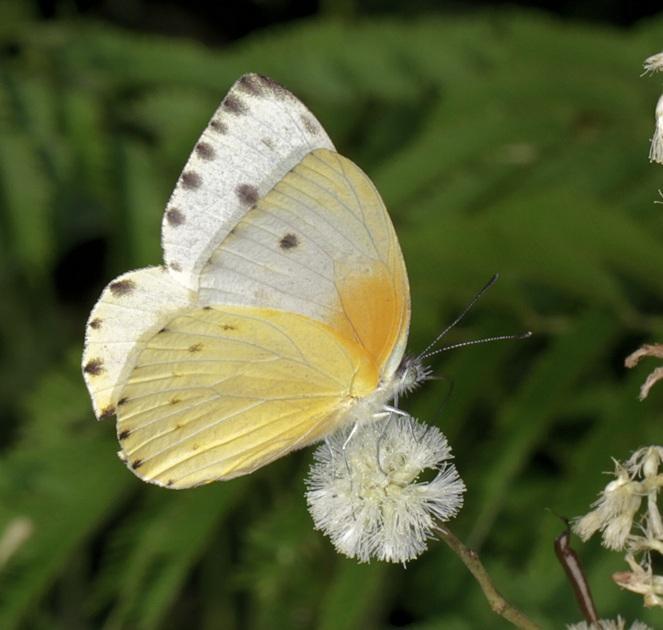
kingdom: Animalia
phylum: Arthropoda
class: Insecta
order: Lepidoptera
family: Pieridae
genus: Dixeia
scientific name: Dixeia pigea
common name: Ant-heap small white
